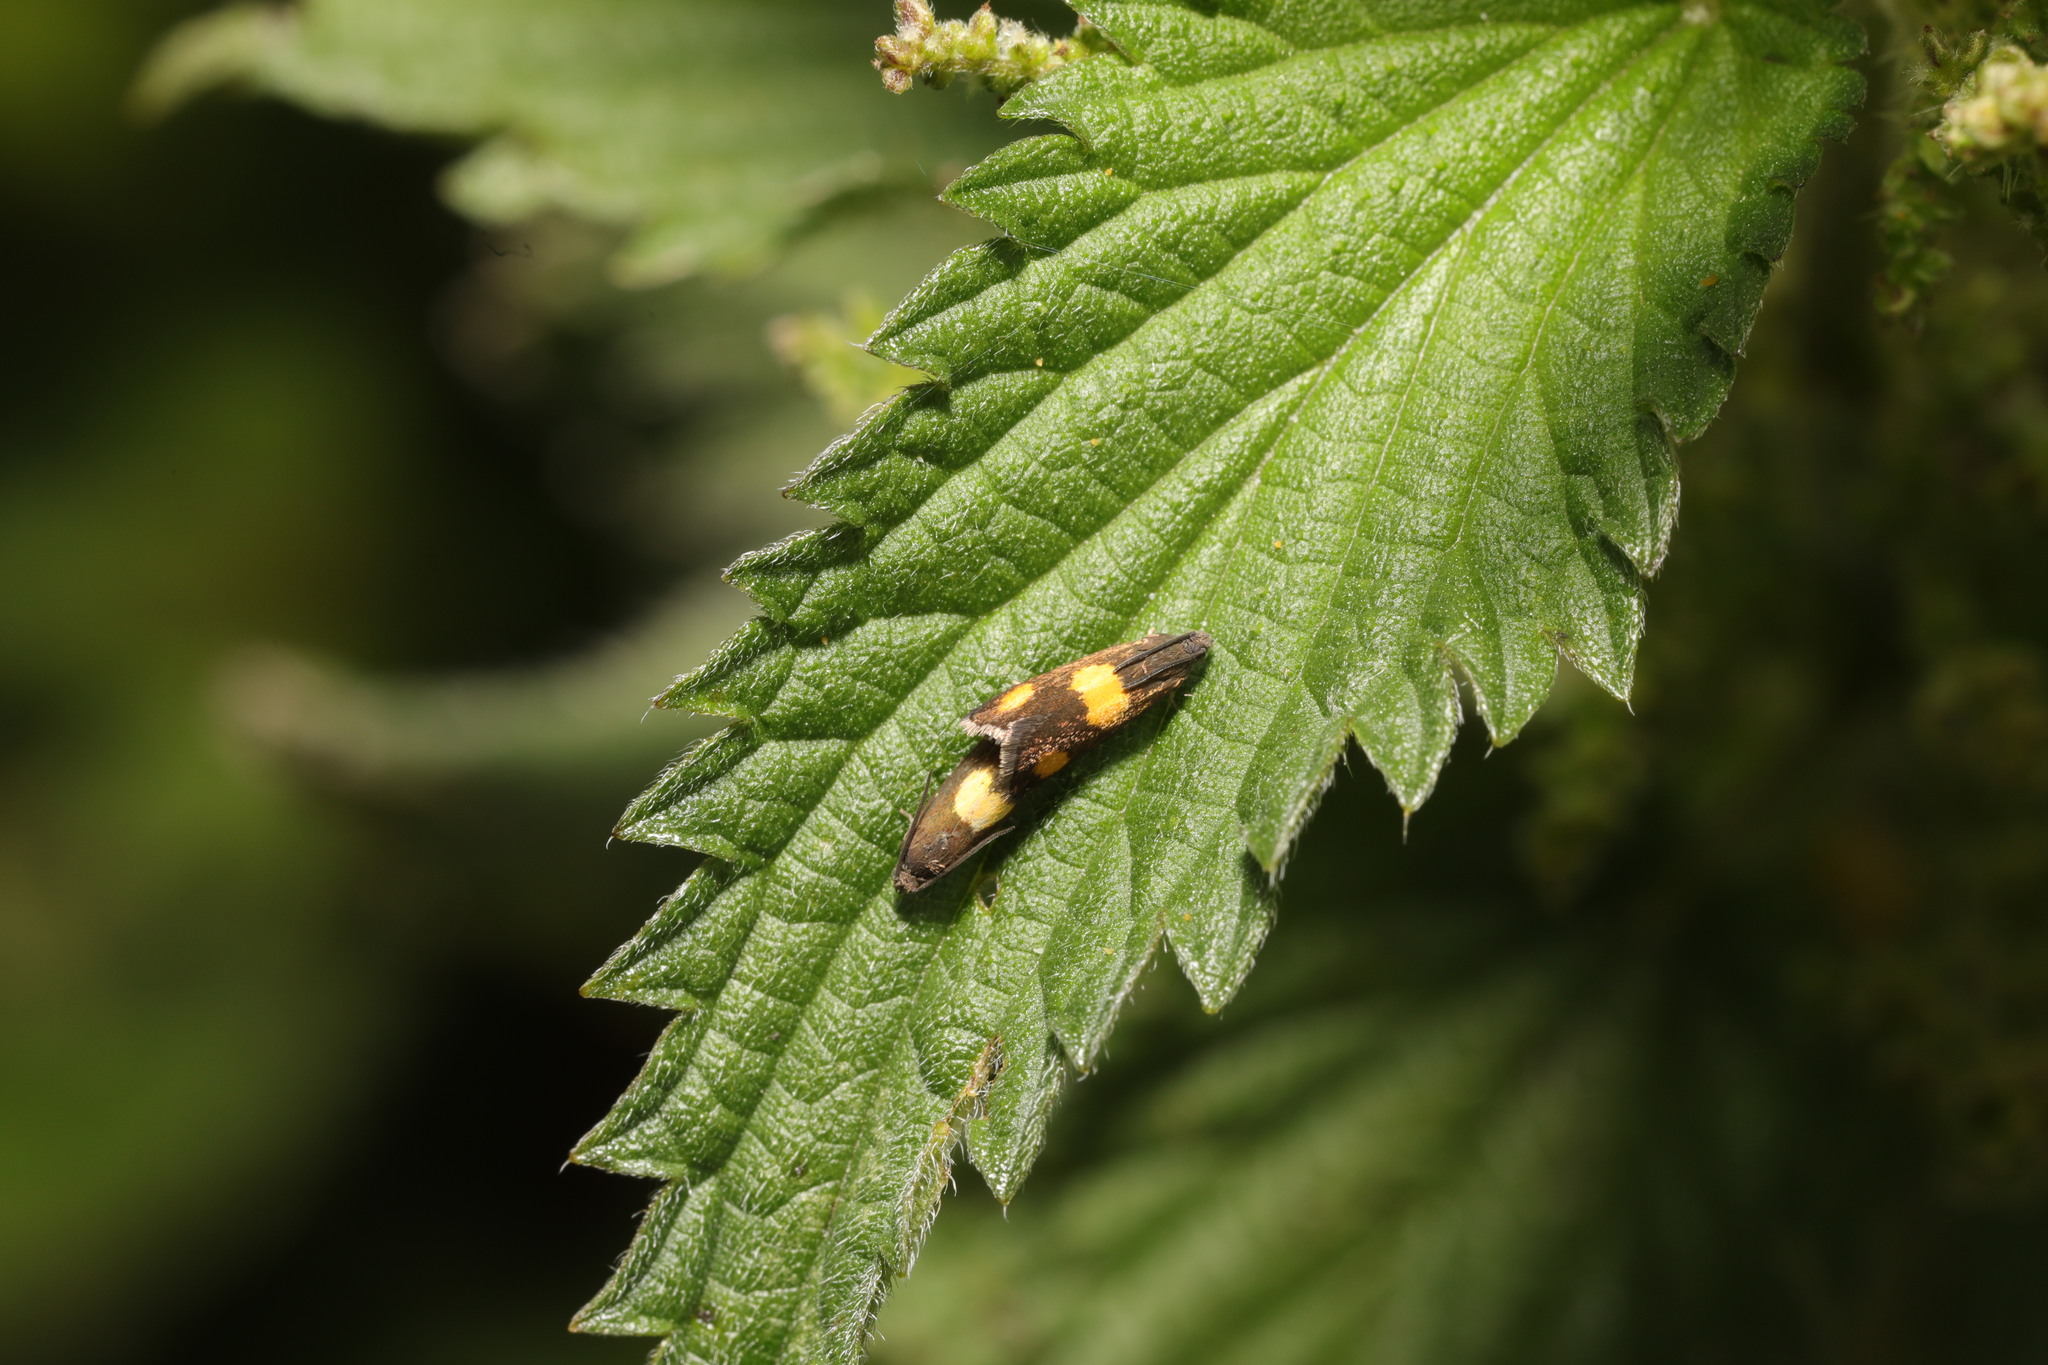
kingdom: Animalia
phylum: Arthropoda
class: Insecta
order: Lepidoptera
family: Tortricidae
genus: Pammene
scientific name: Pammene aurana
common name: Orange-spot piercer
